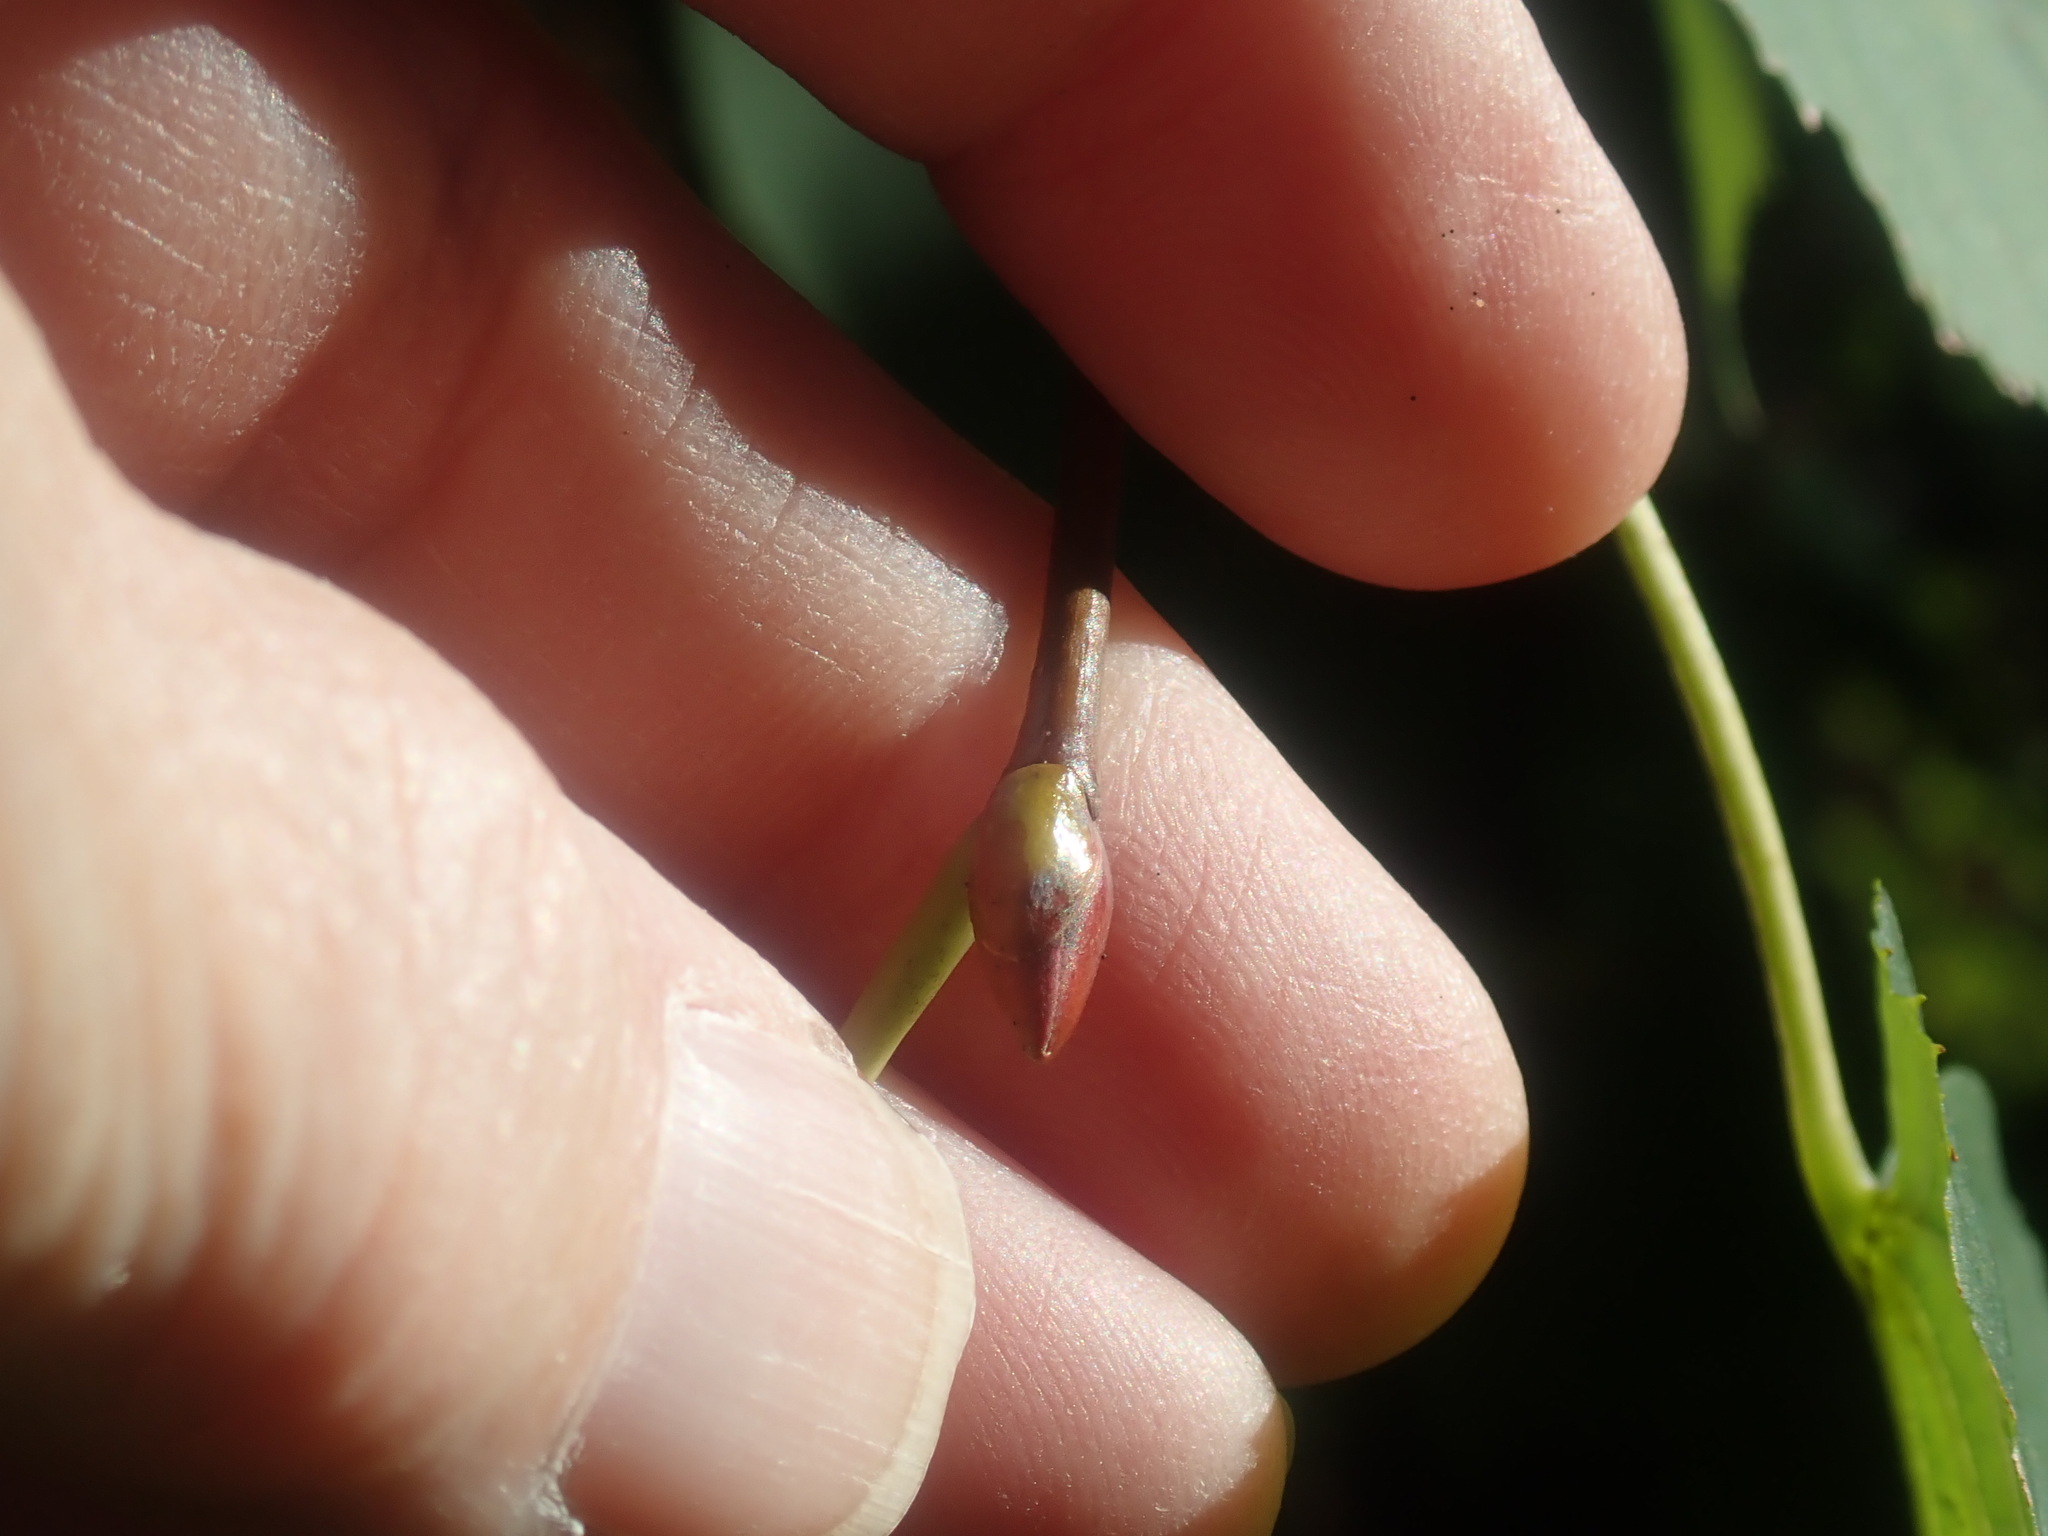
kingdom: Plantae
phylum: Tracheophyta
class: Magnoliopsida
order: Malvales
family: Malvaceae
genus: Tilia
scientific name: Tilia cordata
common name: Small-leaved lime
